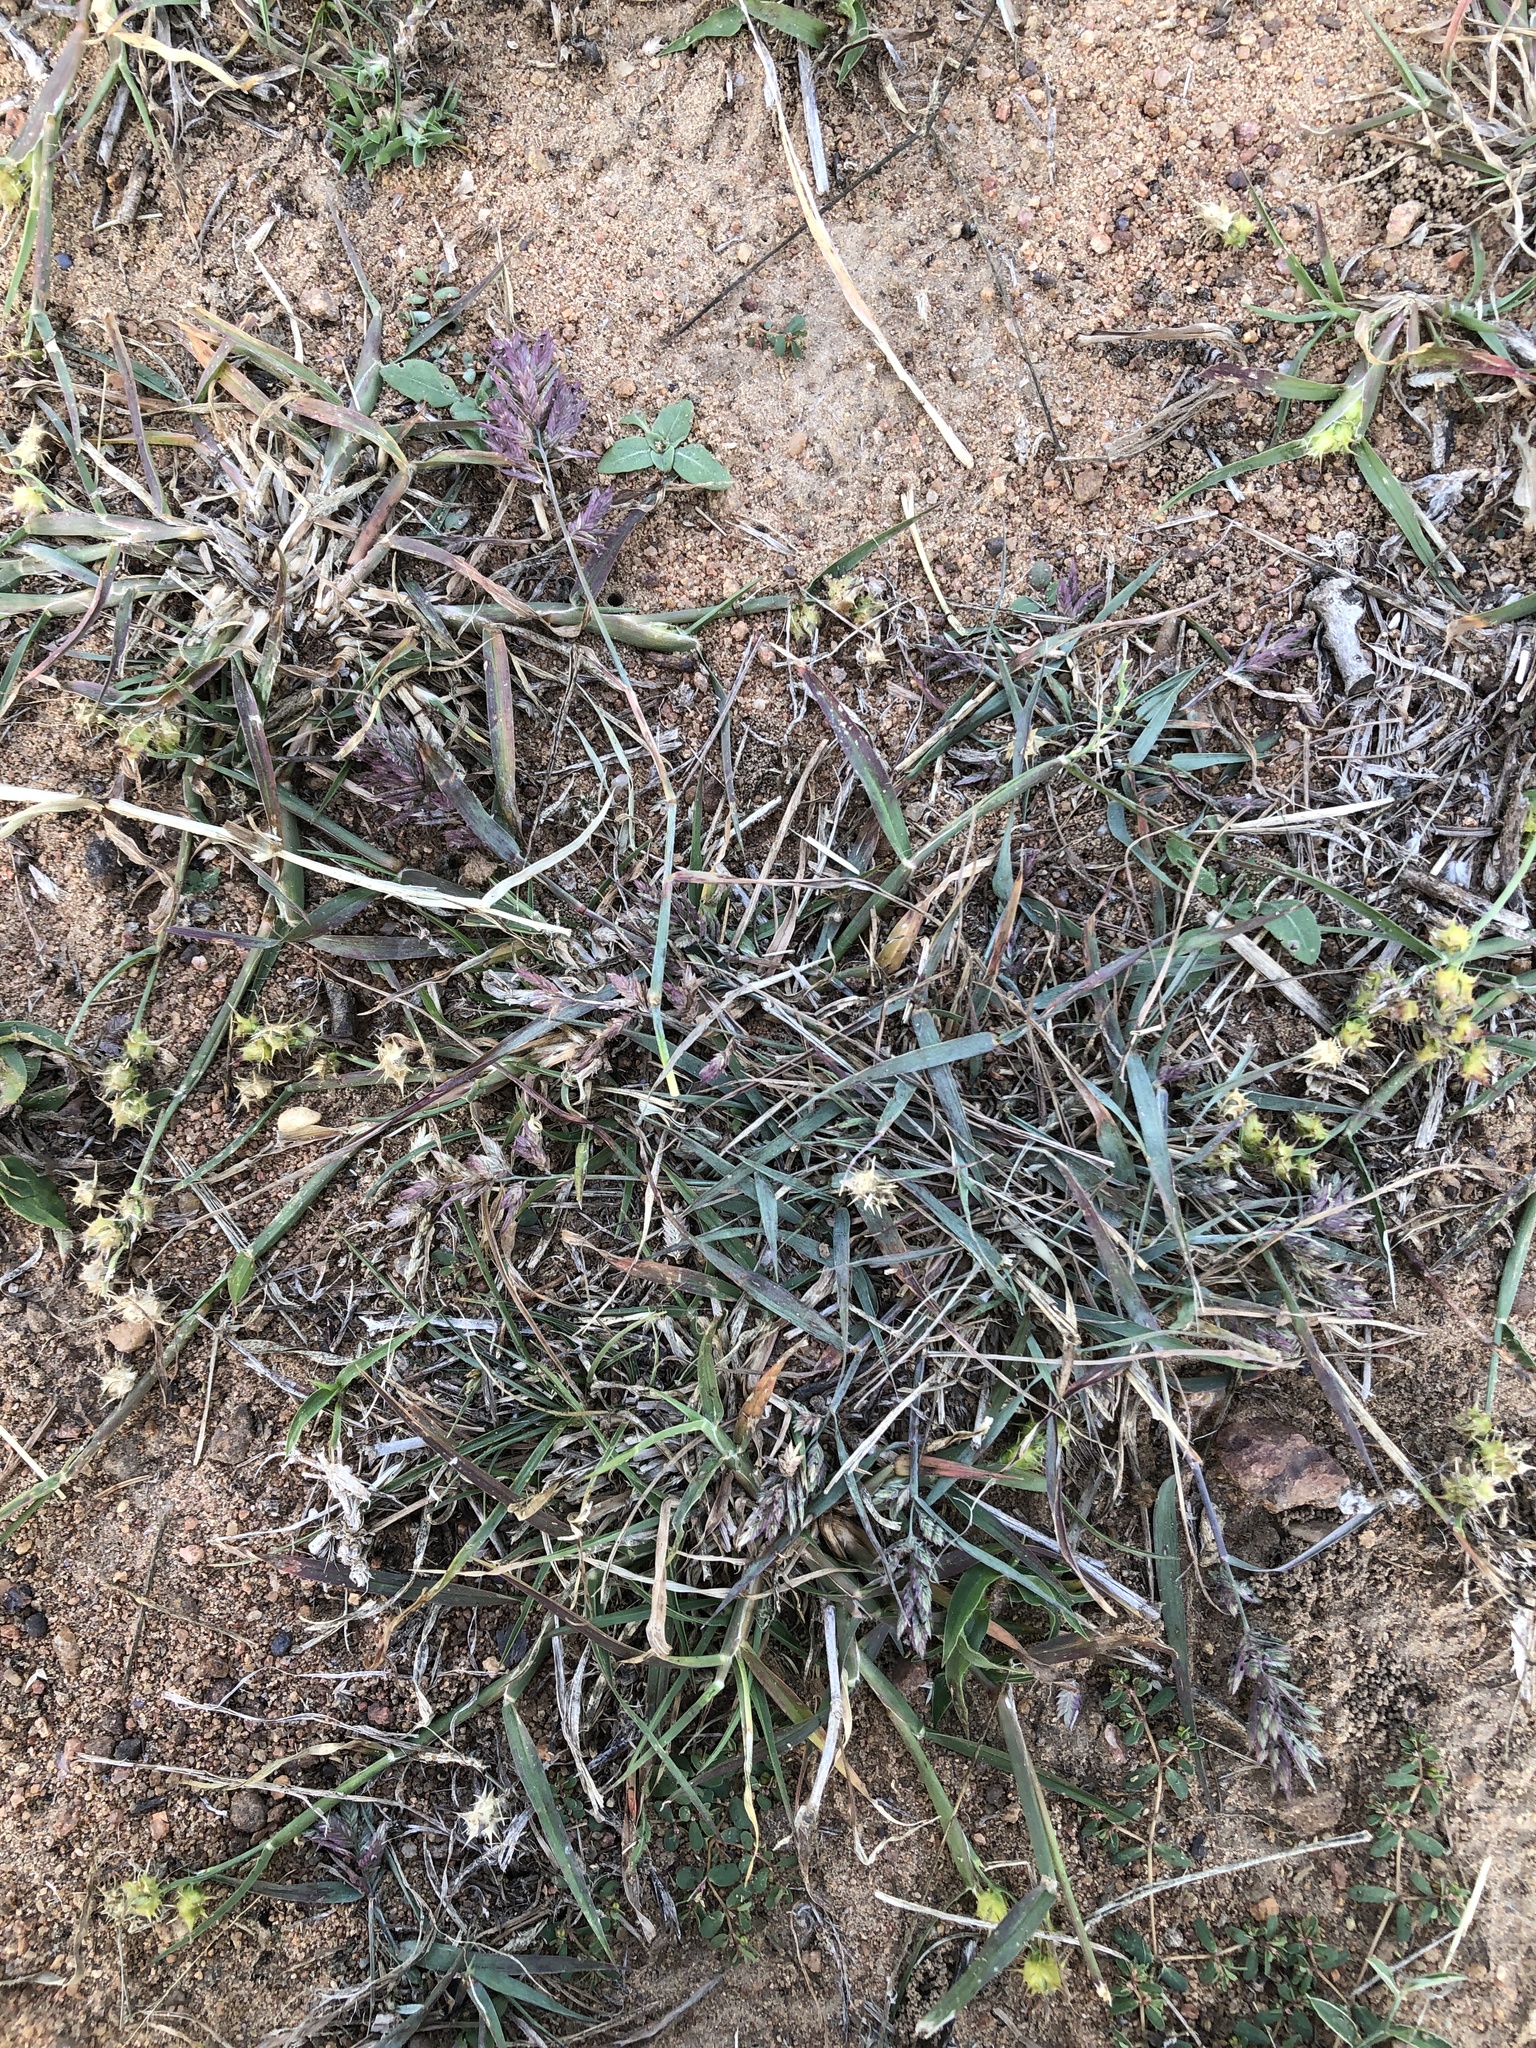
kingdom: Plantae
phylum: Tracheophyta
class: Liliopsida
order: Poales
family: Poaceae
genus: Eragrostis
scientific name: Eragrostis secundiflora
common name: Red love grass
